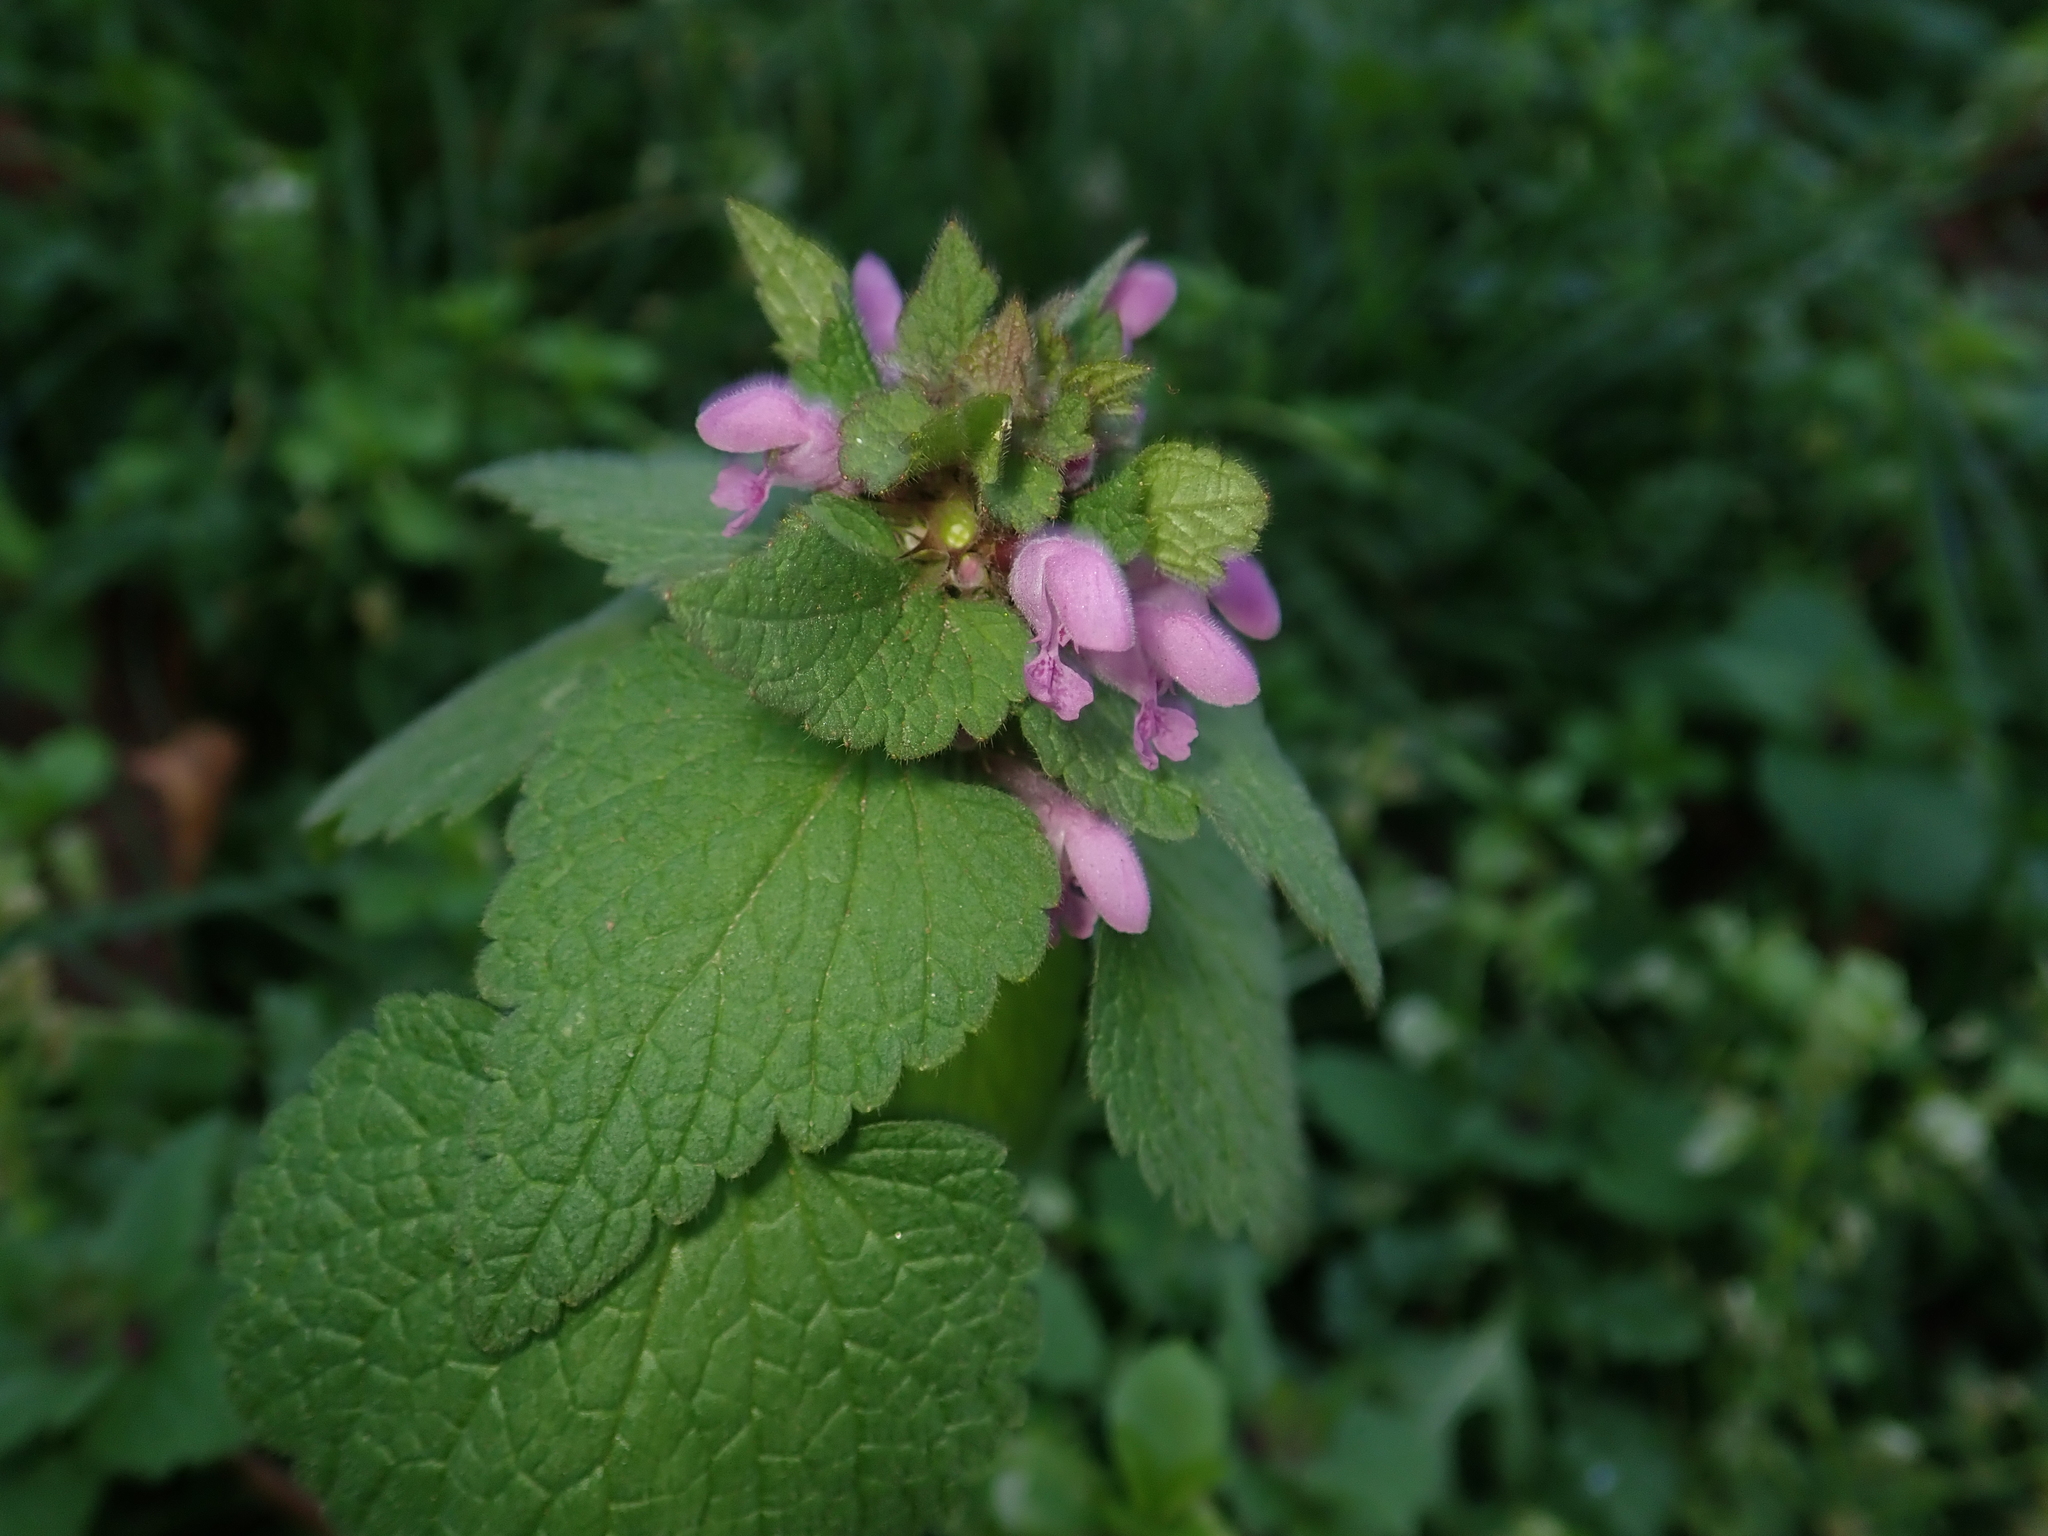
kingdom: Plantae
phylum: Tracheophyta
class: Magnoliopsida
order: Lamiales
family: Lamiaceae
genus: Lamium
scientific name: Lamium purpureum
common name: Red dead-nettle
